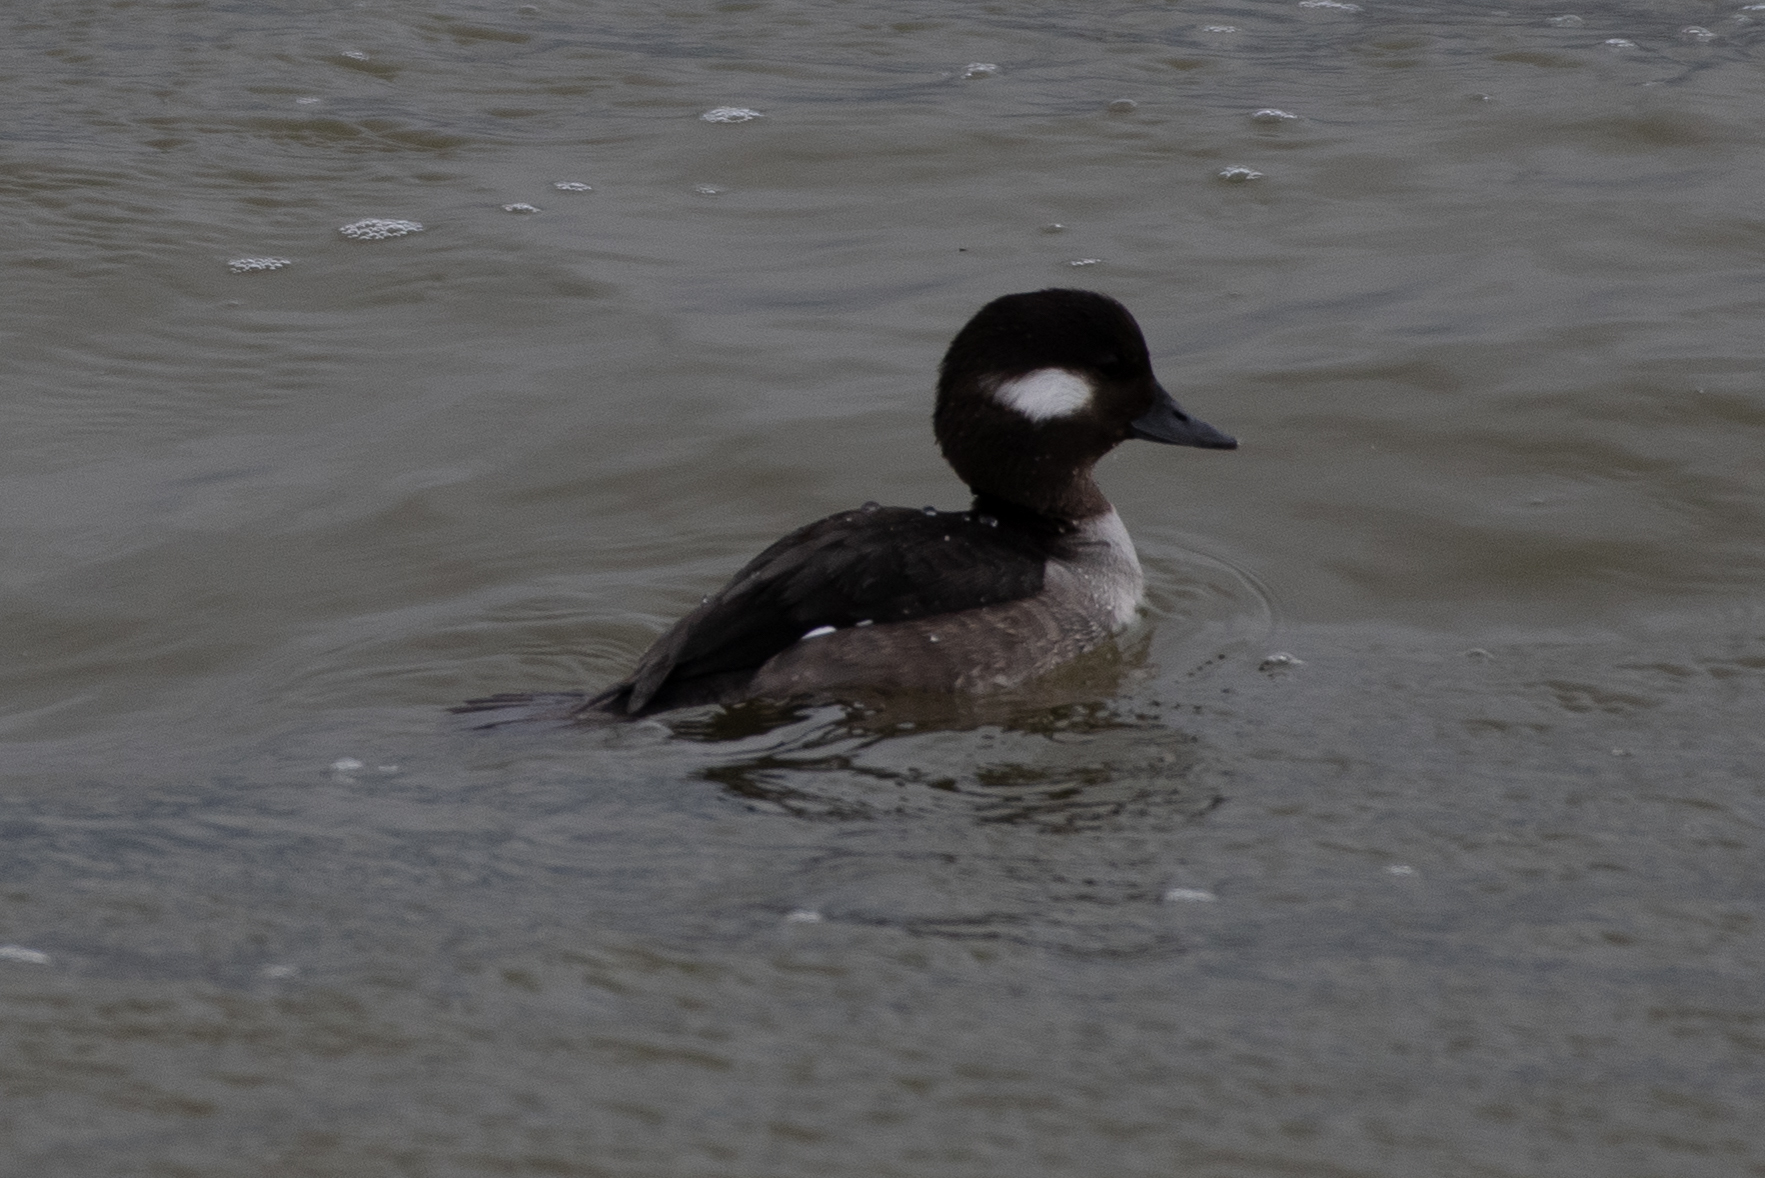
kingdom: Animalia
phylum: Chordata
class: Aves
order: Anseriformes
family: Anatidae
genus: Bucephala
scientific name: Bucephala albeola
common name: Bufflehead
